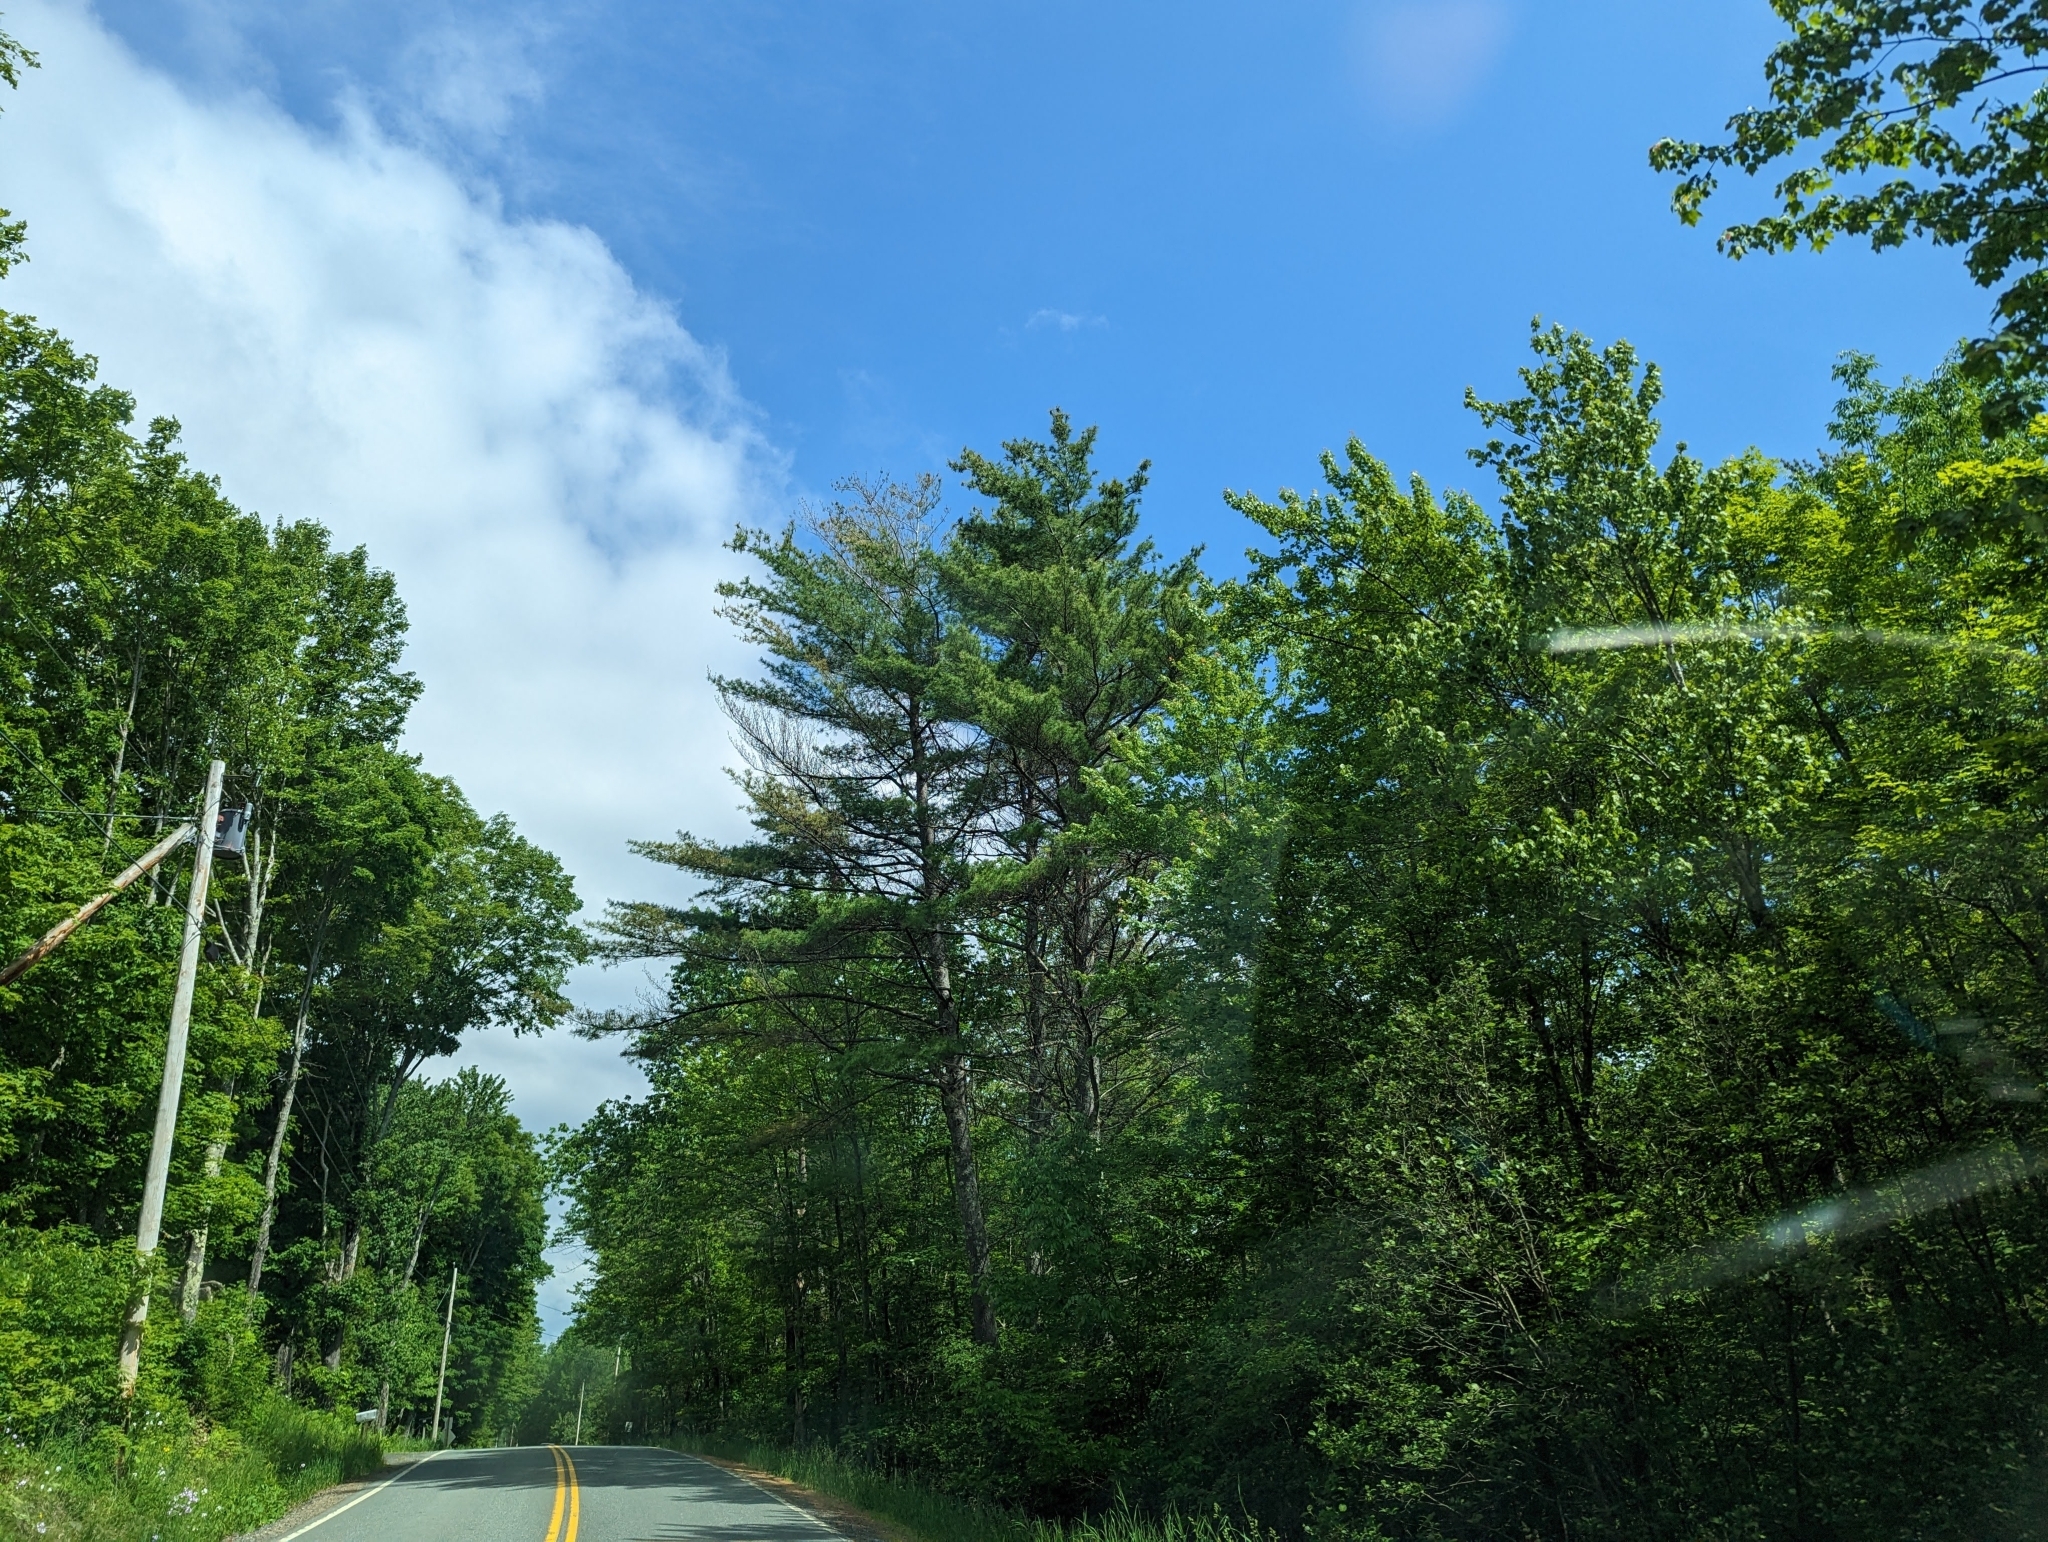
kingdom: Plantae
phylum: Tracheophyta
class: Pinopsida
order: Pinales
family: Pinaceae
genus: Pinus
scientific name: Pinus strobus
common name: Weymouth pine
